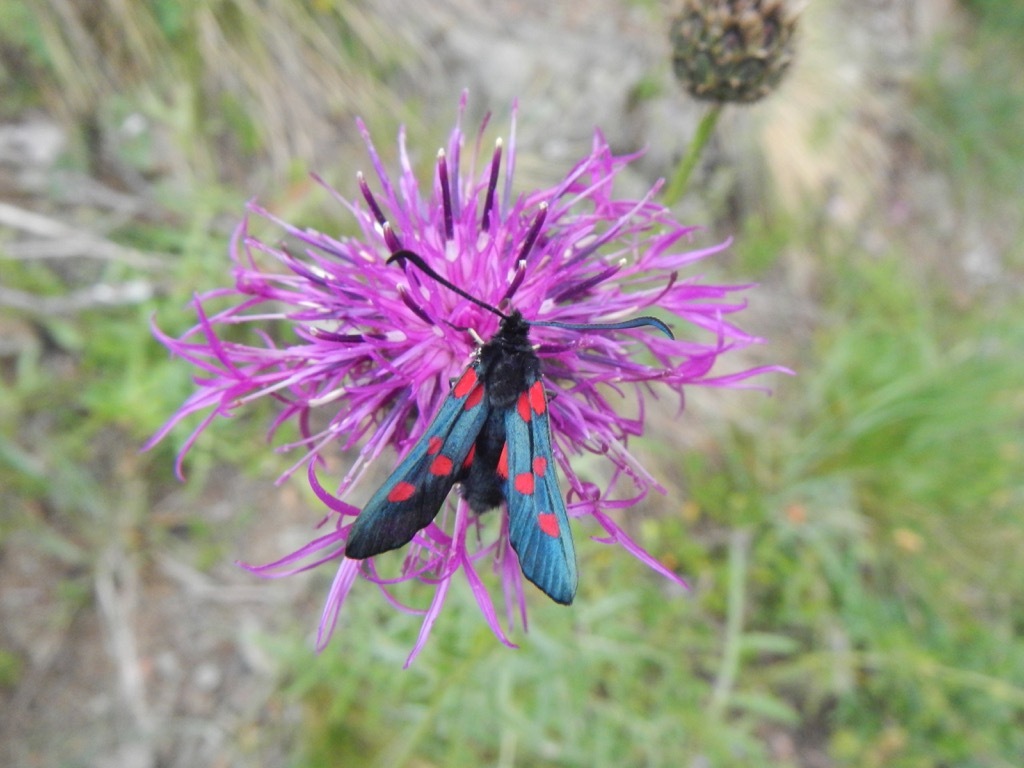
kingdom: Animalia
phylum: Arthropoda
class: Insecta
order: Lepidoptera
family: Zygaenidae
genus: Zygaena
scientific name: Zygaena lonicerae
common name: Narrow-bordered five-spot burnet
